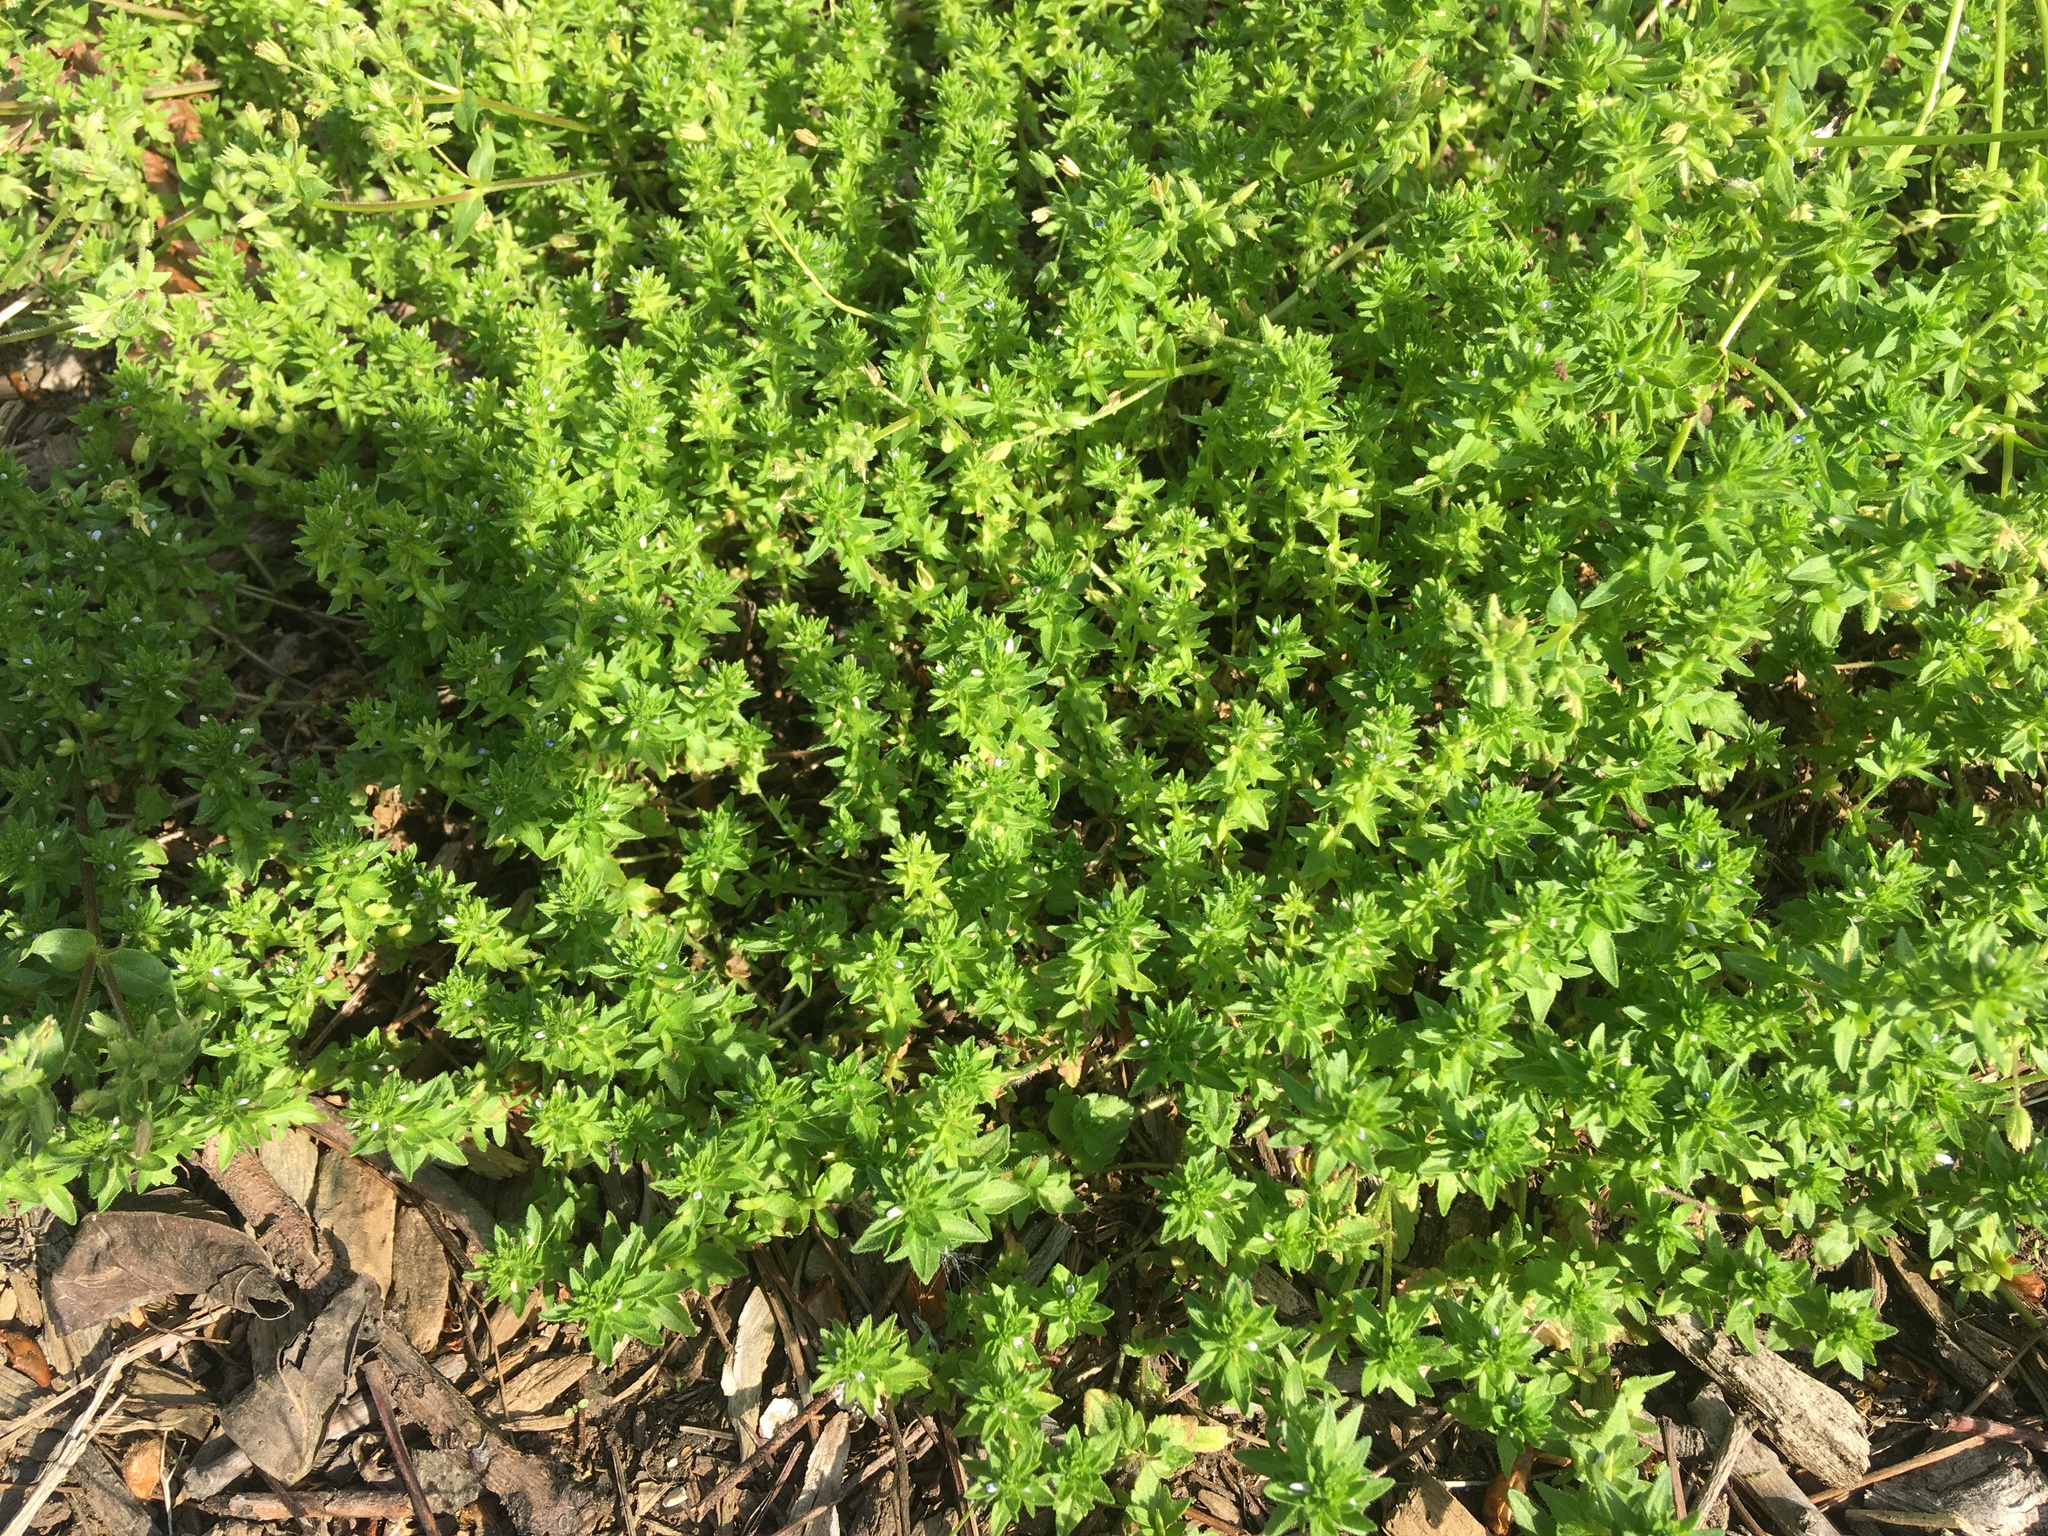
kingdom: Plantae
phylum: Tracheophyta
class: Magnoliopsida
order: Lamiales
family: Plantaginaceae
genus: Veronica
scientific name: Veronica arvensis
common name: Corn speedwell
